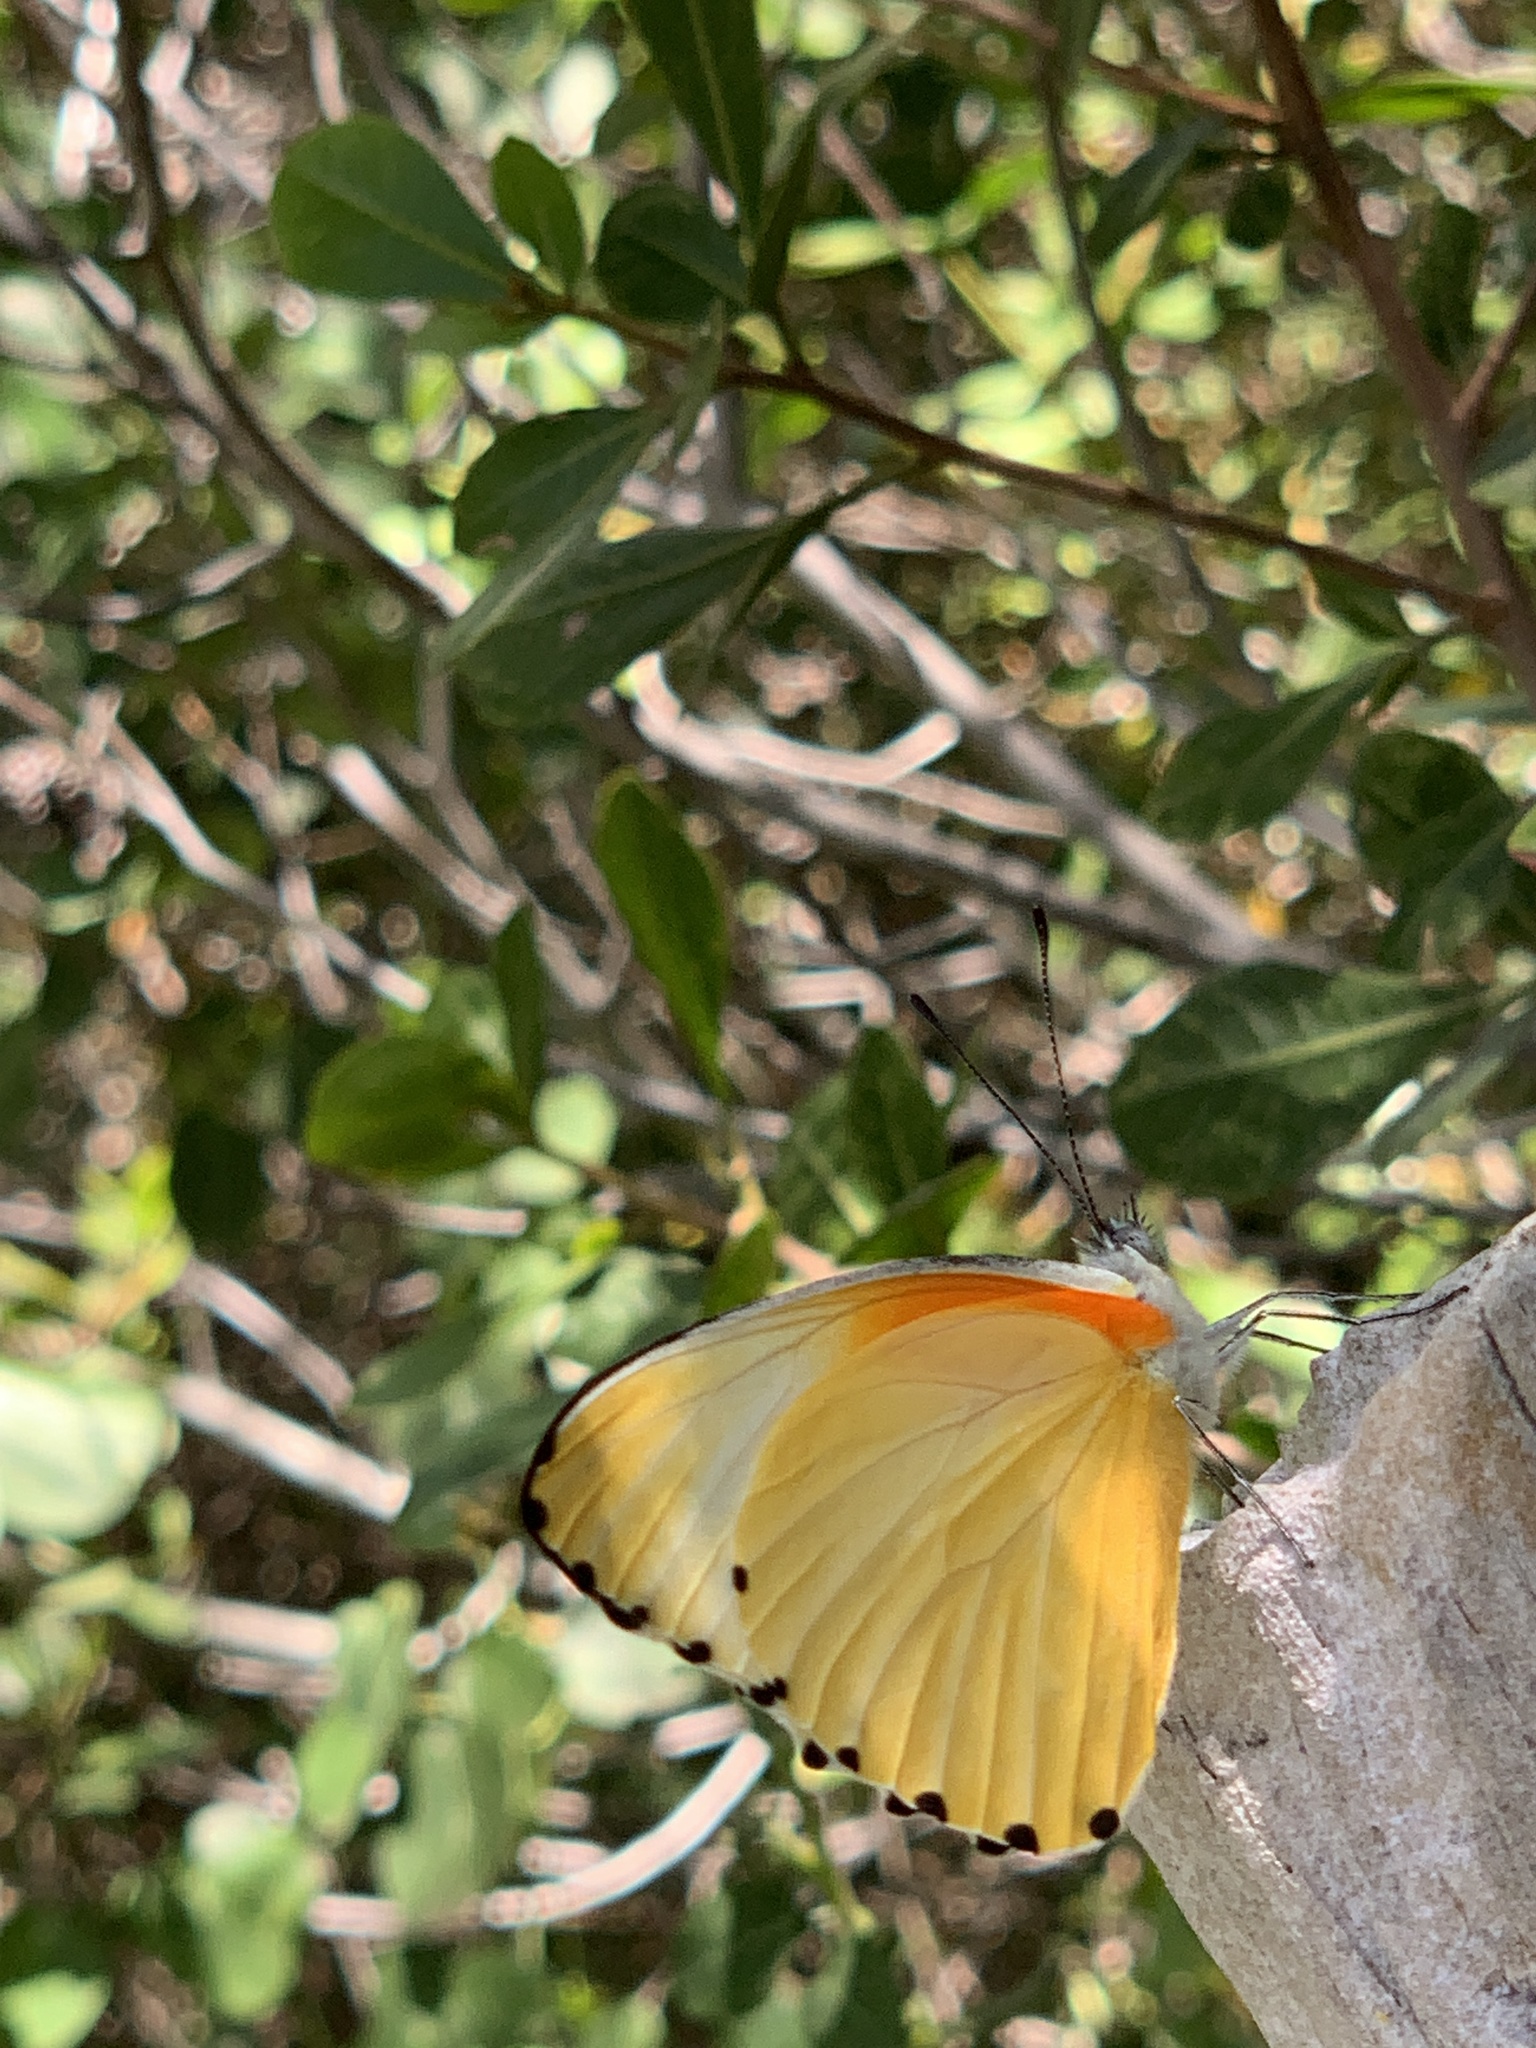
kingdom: Animalia
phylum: Arthropoda
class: Insecta
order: Lepidoptera
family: Pieridae
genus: Mylothris
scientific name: Mylothris agathina
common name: Eastern dotted border
